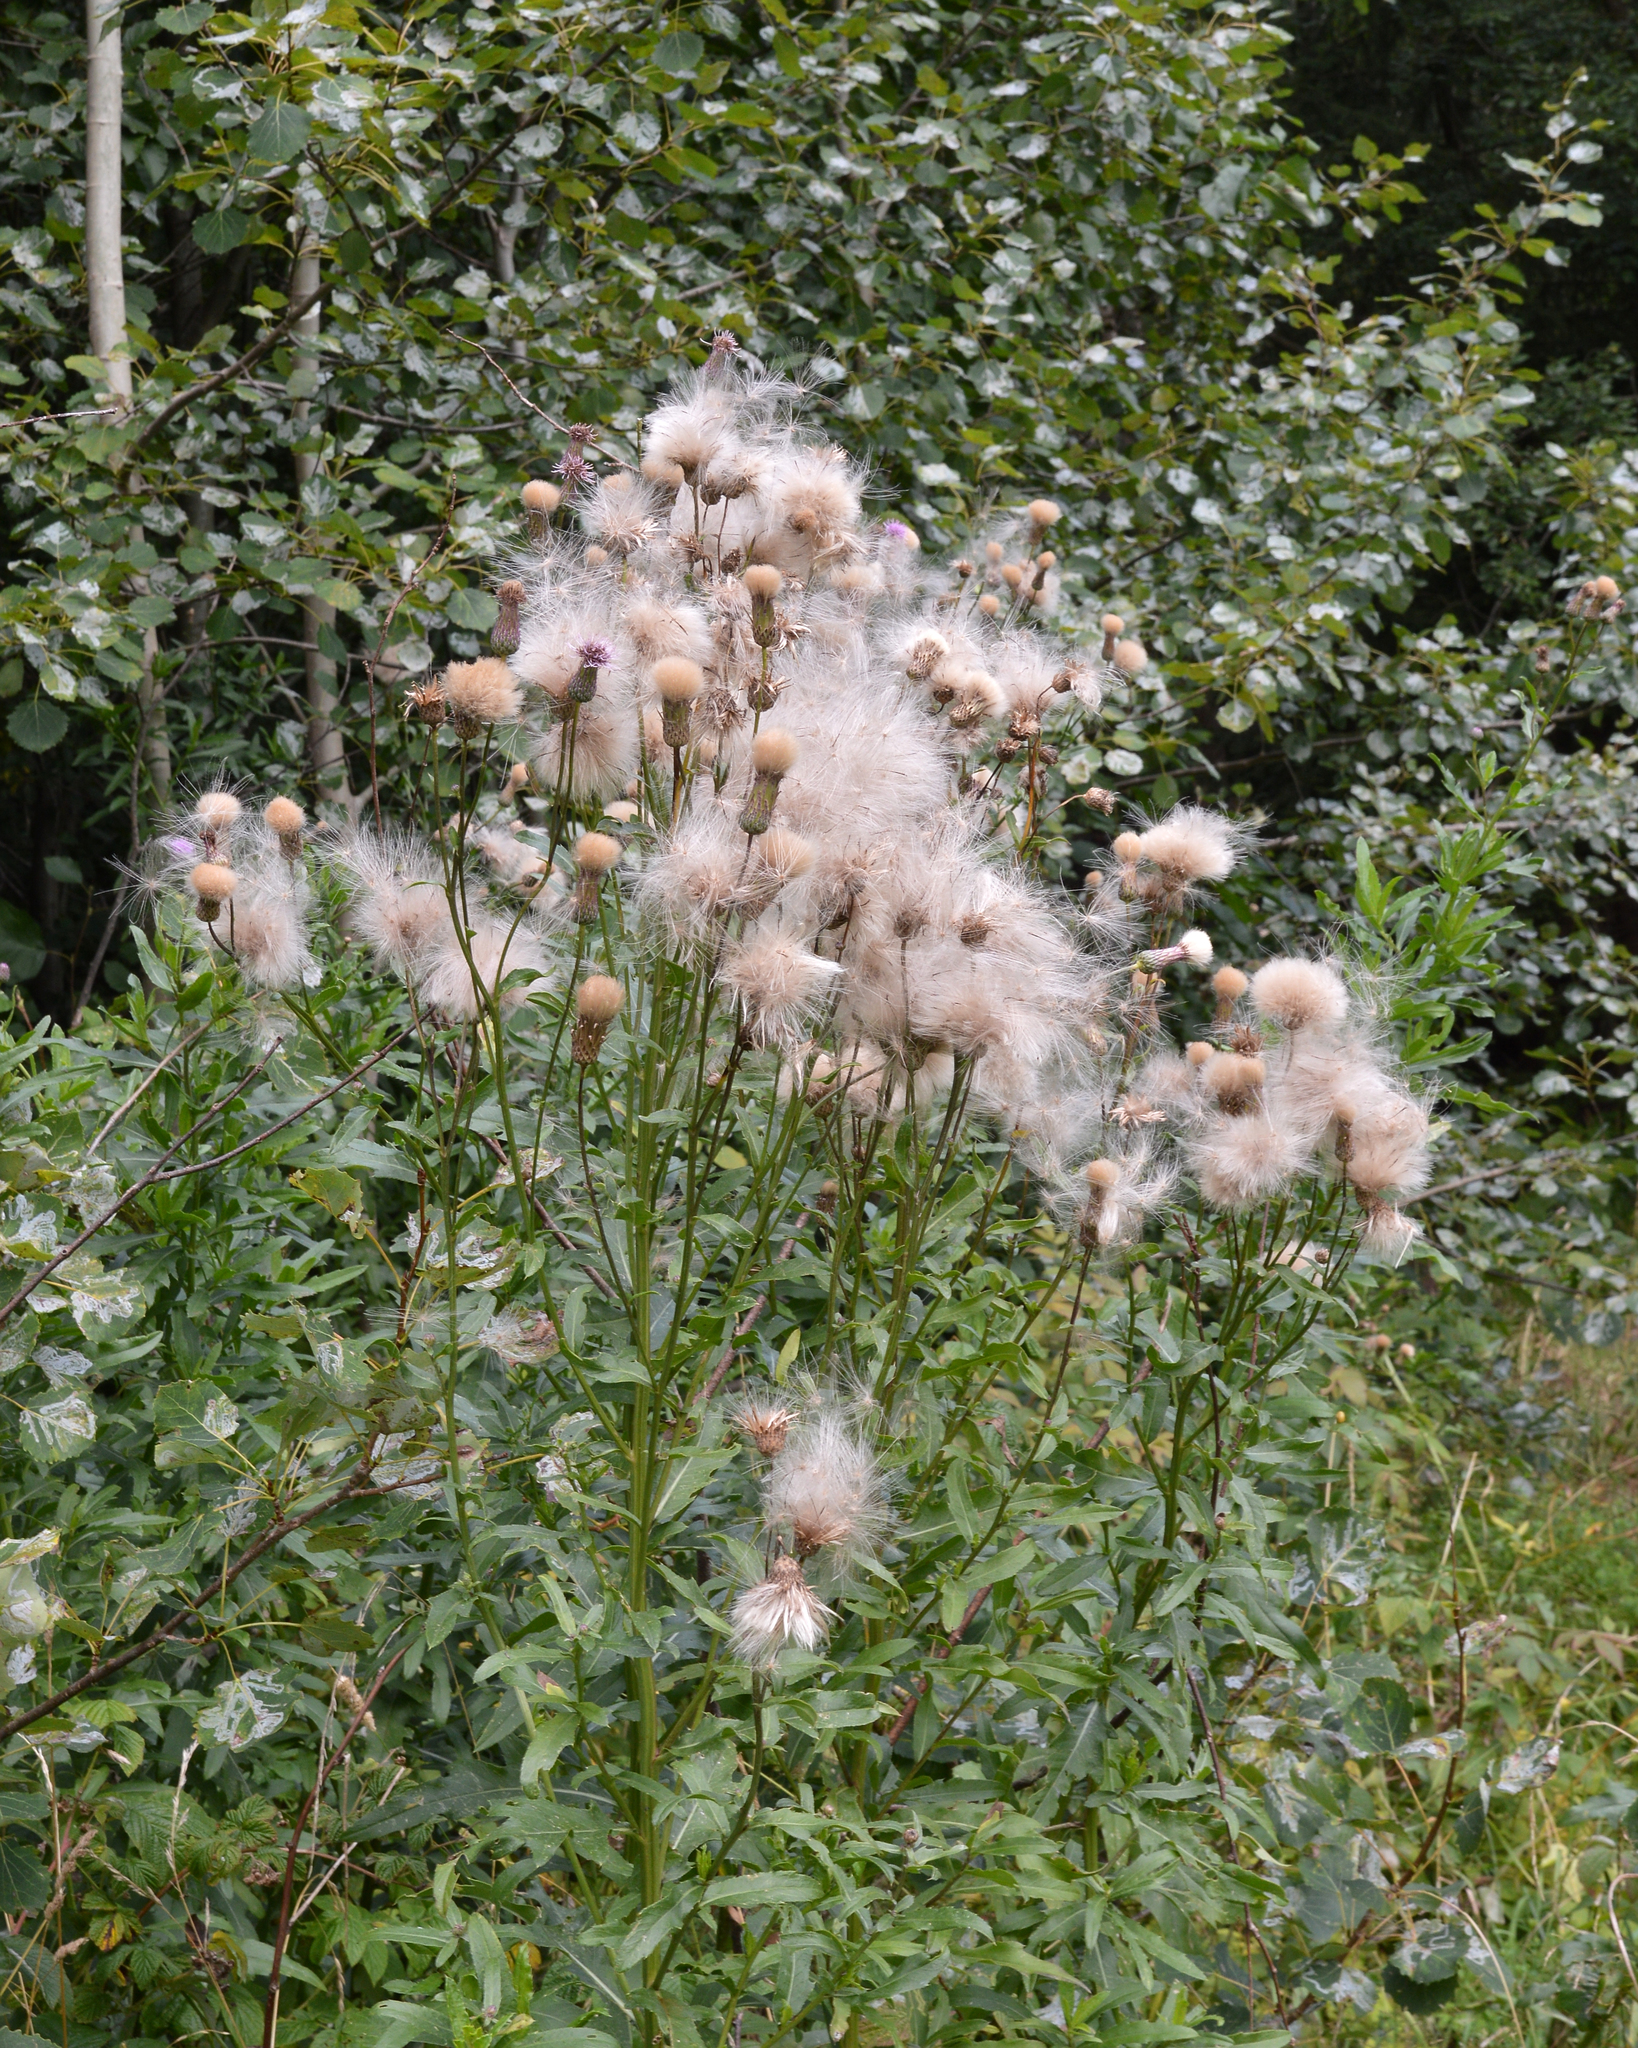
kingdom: Plantae
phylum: Tracheophyta
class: Magnoliopsida
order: Asterales
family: Asteraceae
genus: Cirsium
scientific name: Cirsium arvense
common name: Creeping thistle
